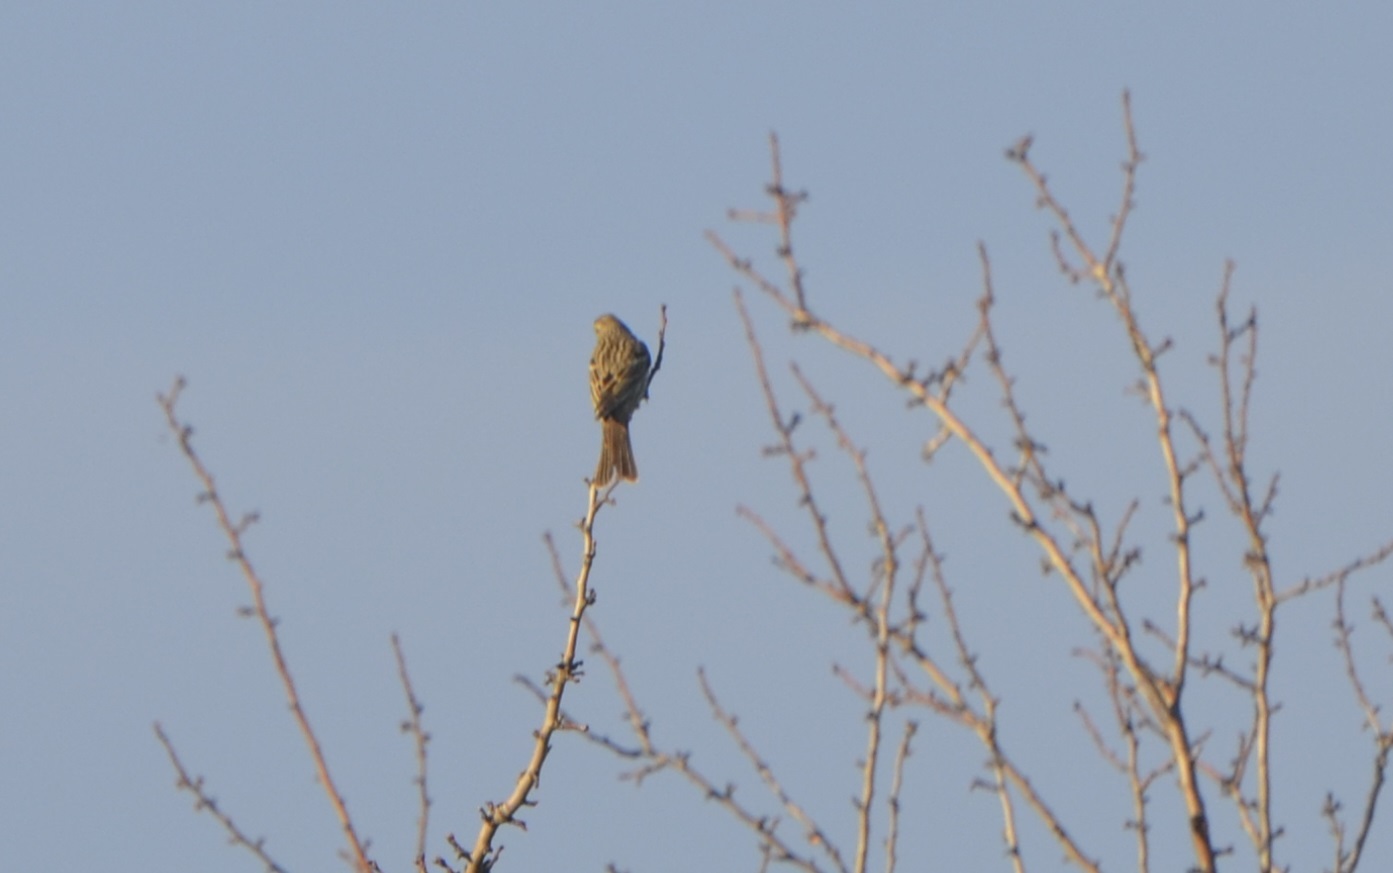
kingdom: Animalia
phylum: Chordata
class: Aves
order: Passeriformes
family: Emberizidae
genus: Emberiza
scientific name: Emberiza calandra
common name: Corn bunting
